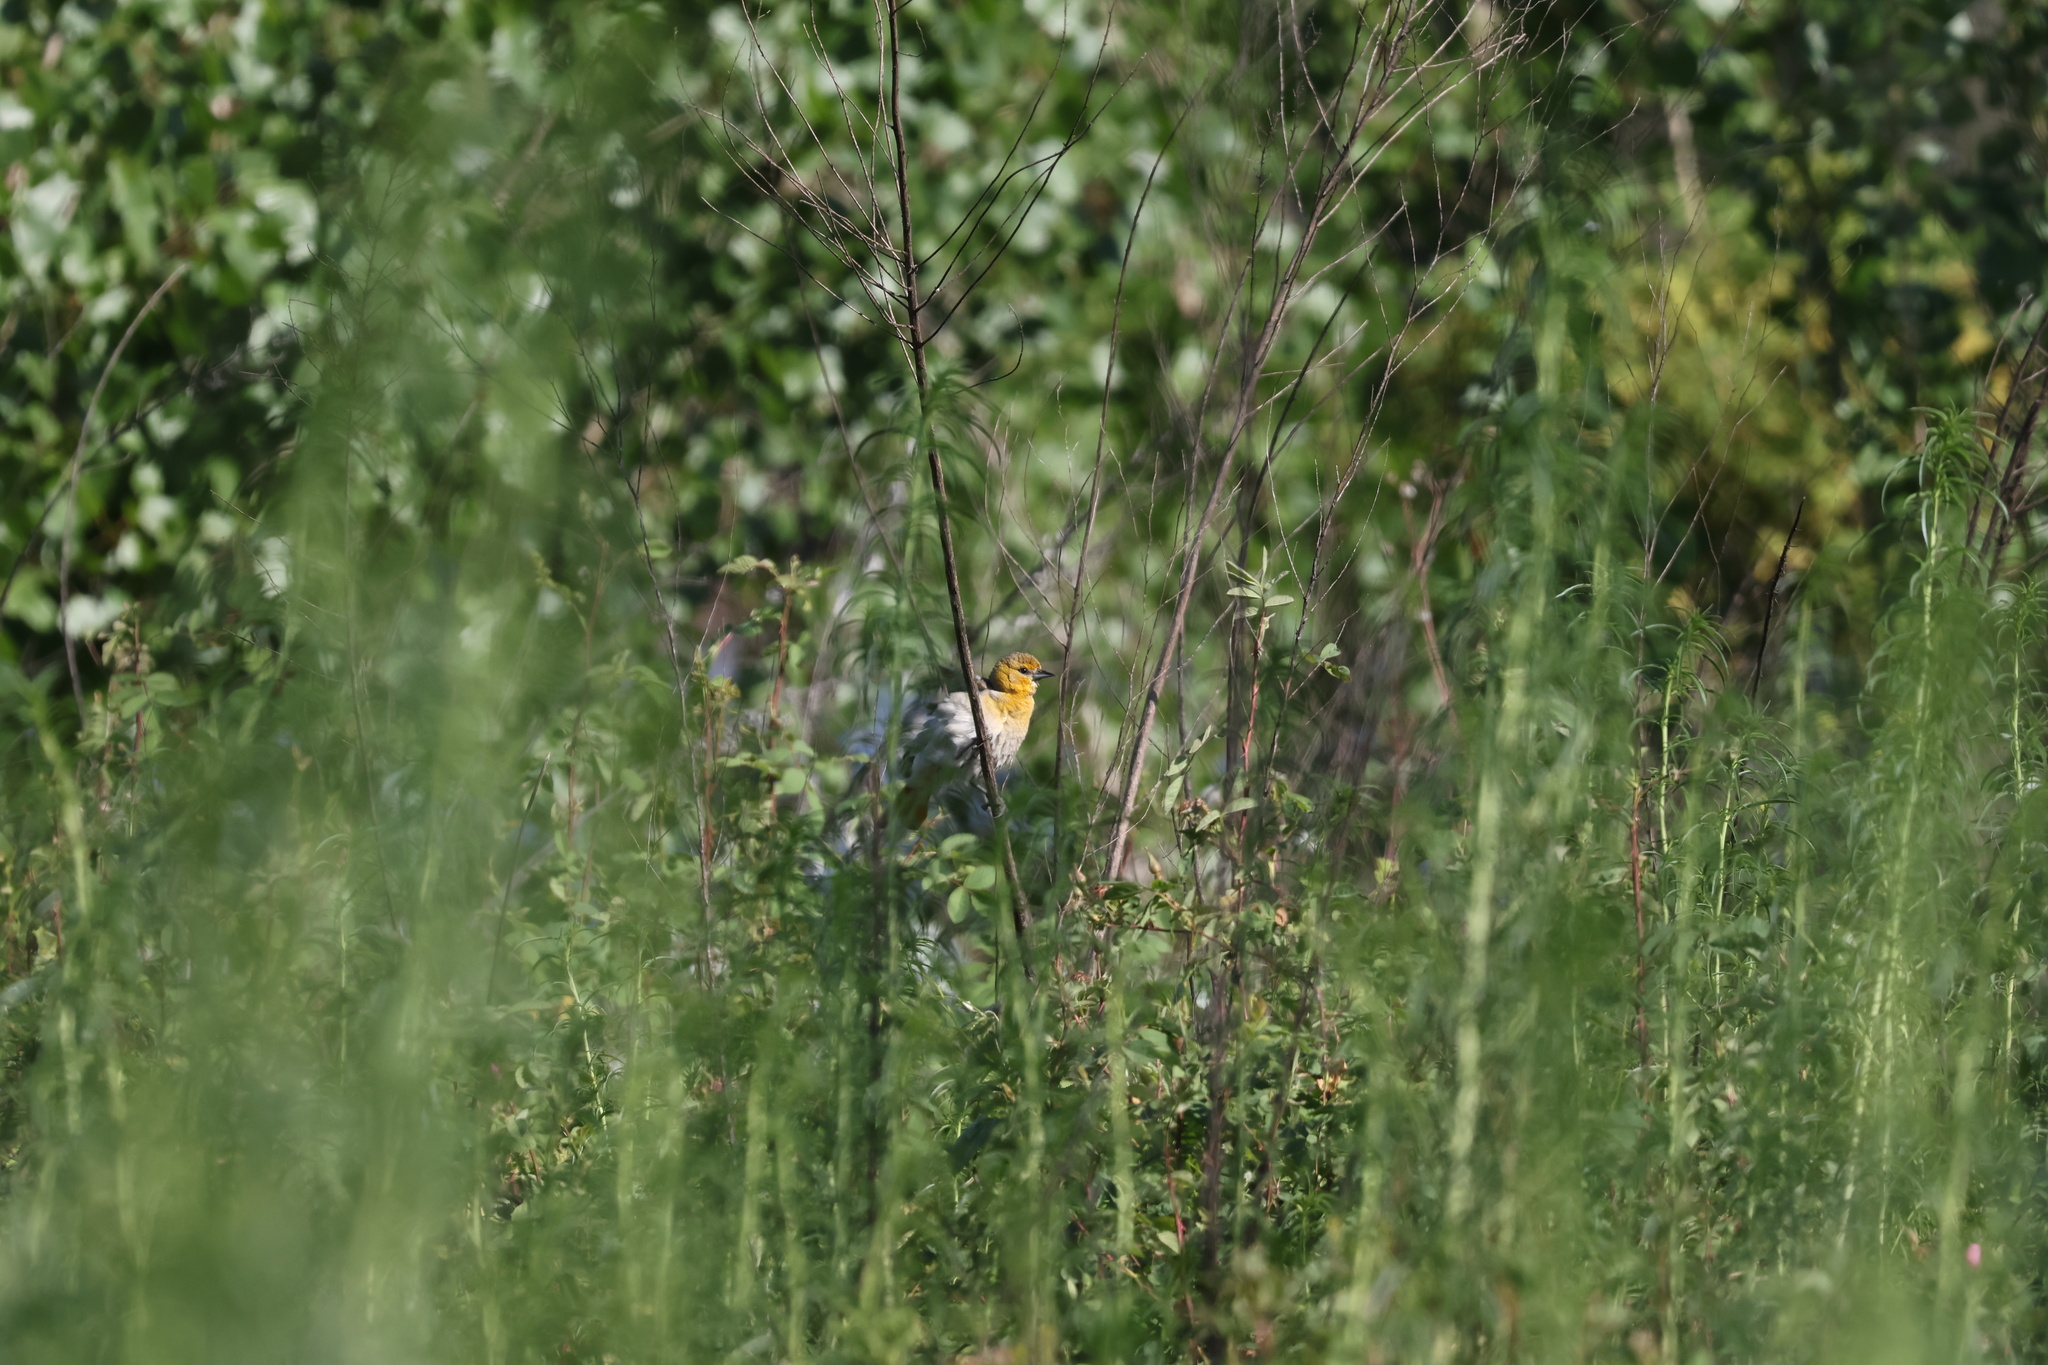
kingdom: Animalia
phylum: Chordata
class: Aves
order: Passeriformes
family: Icteridae
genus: Icterus
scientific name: Icterus bullockii
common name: Bullock's oriole
